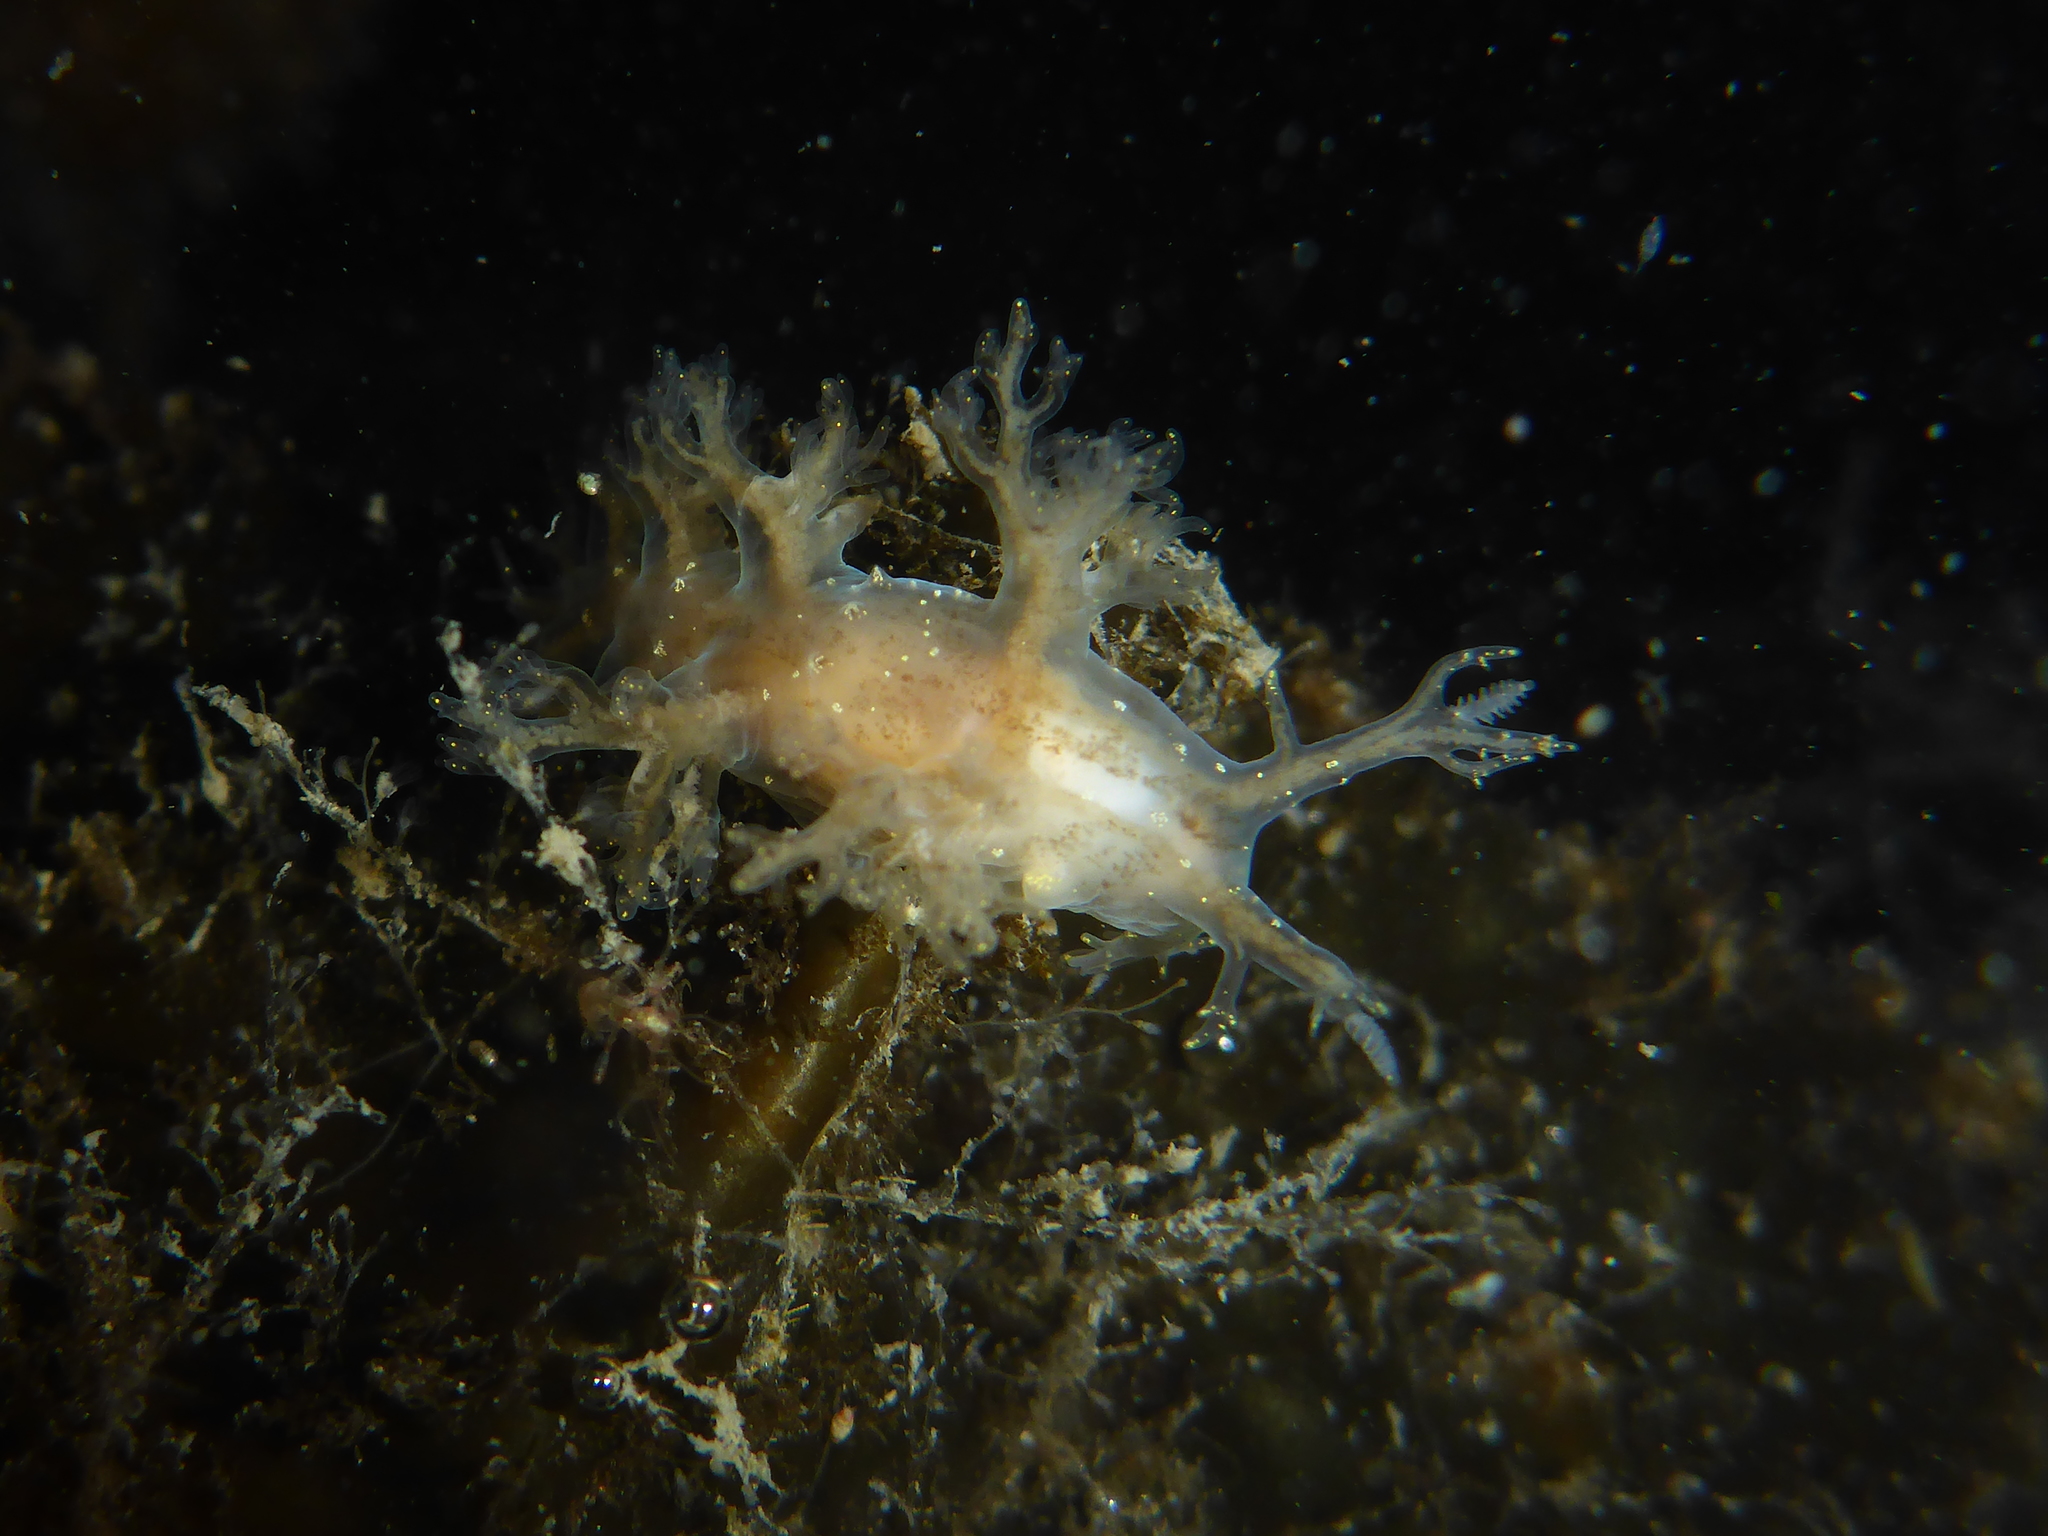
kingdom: Animalia
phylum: Mollusca
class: Gastropoda
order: Nudibranchia
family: Dendronotidae
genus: Dendronotus
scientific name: Dendronotus venustus
